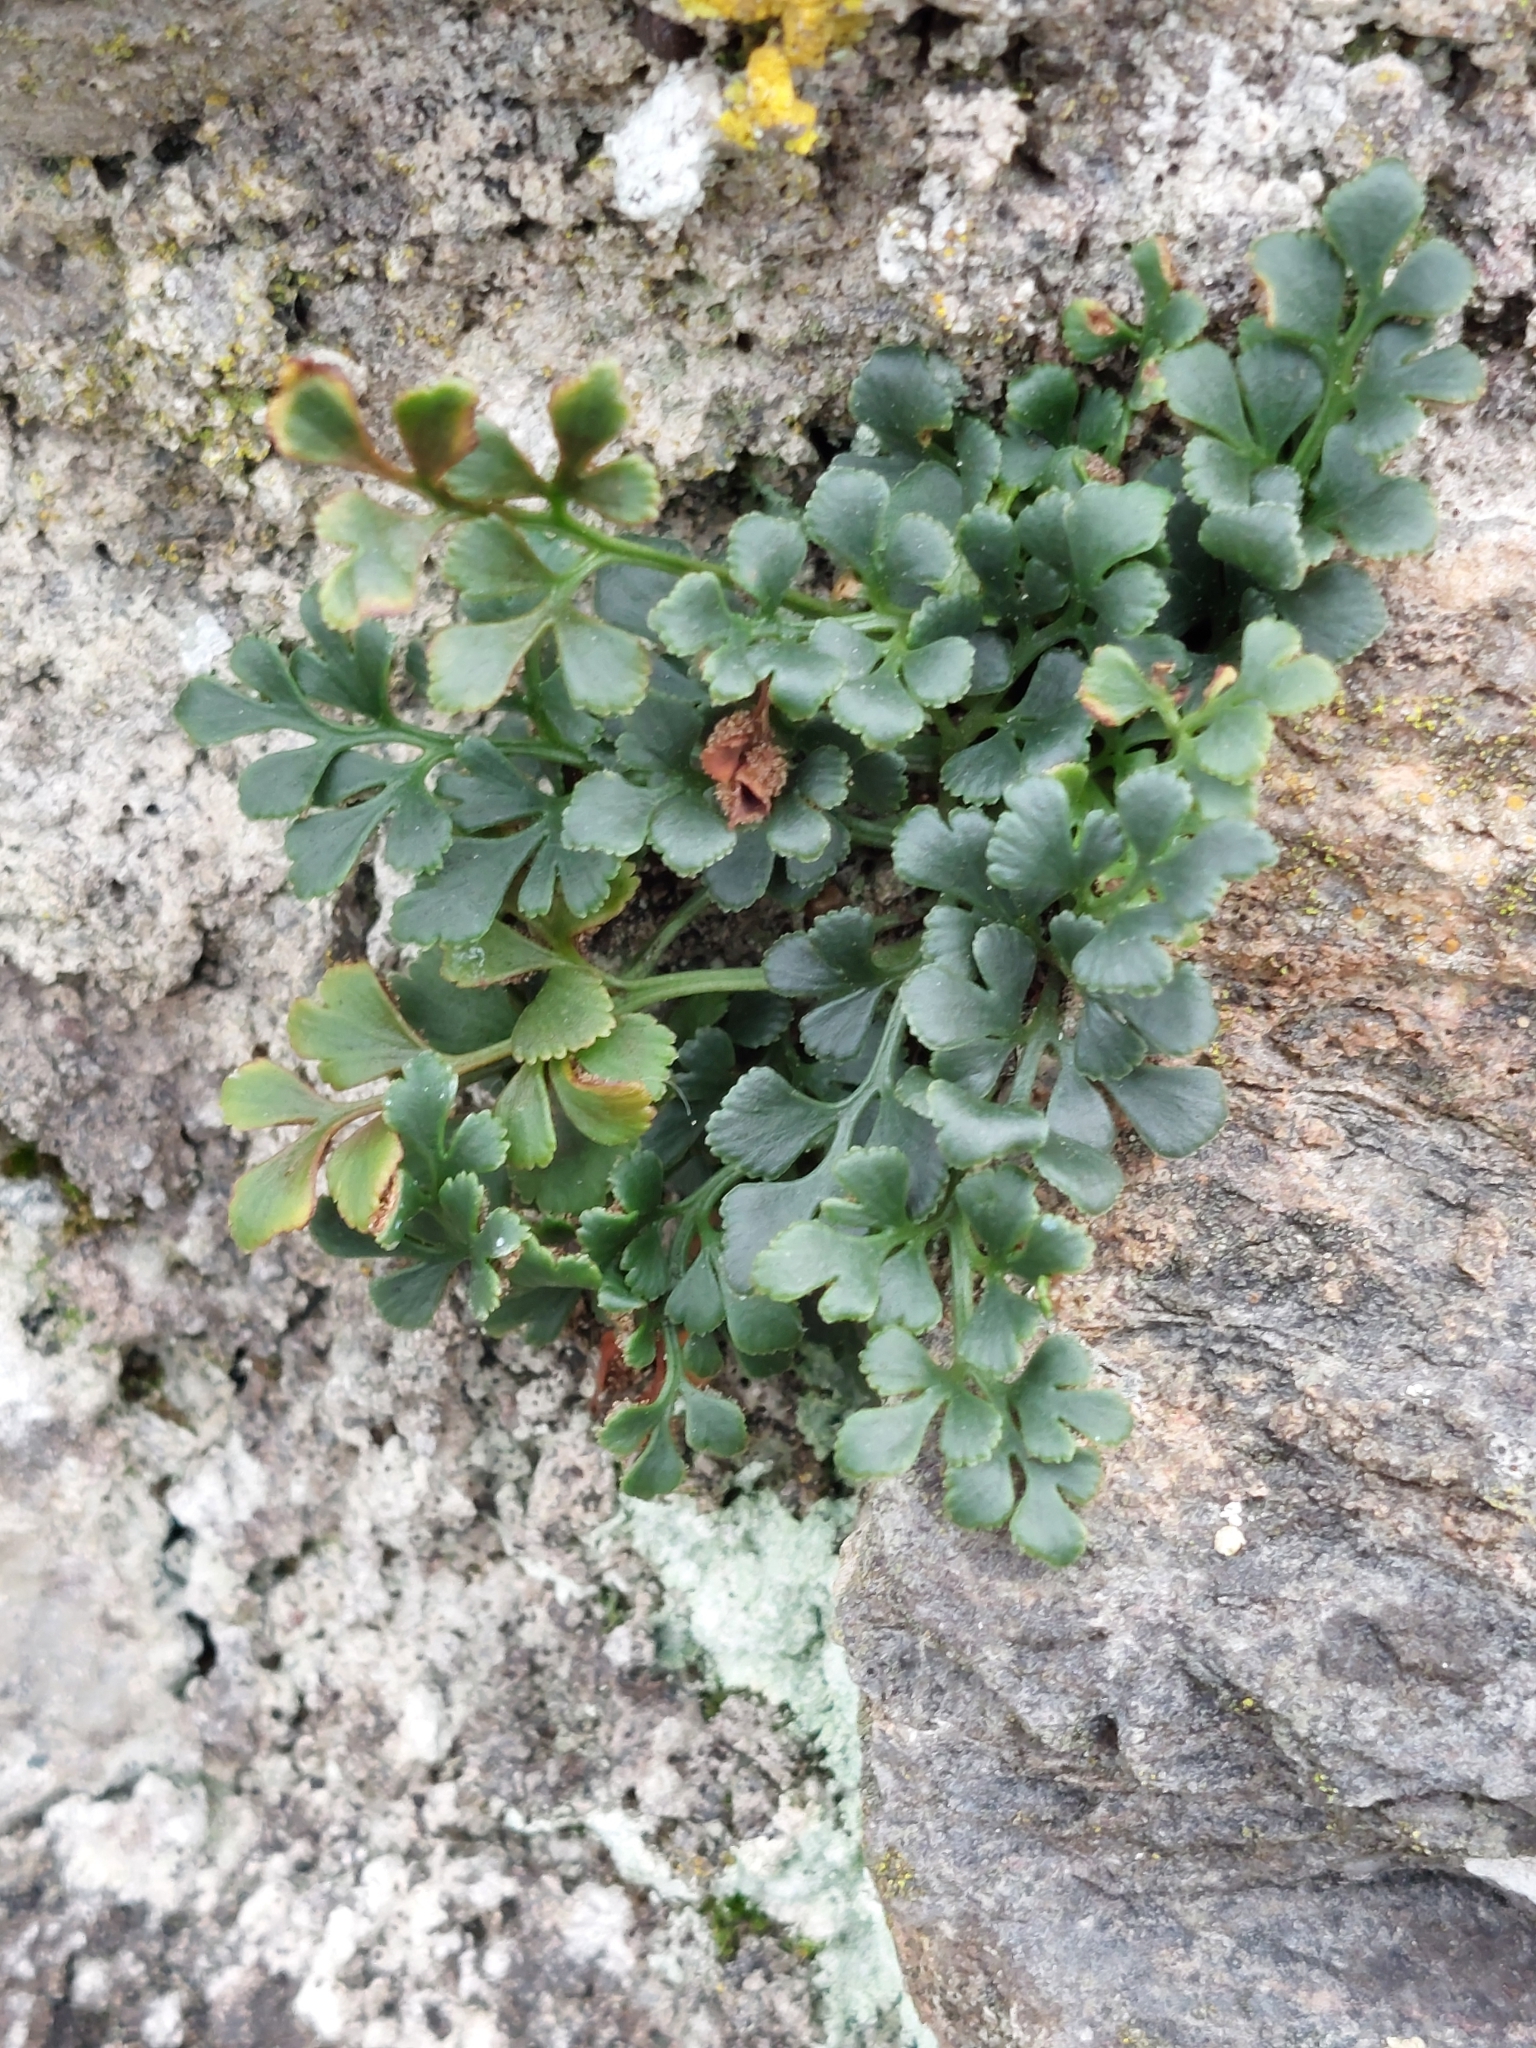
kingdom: Plantae
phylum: Tracheophyta
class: Polypodiopsida
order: Polypodiales
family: Aspleniaceae
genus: Asplenium
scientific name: Asplenium ruta-muraria
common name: Wall-rue
